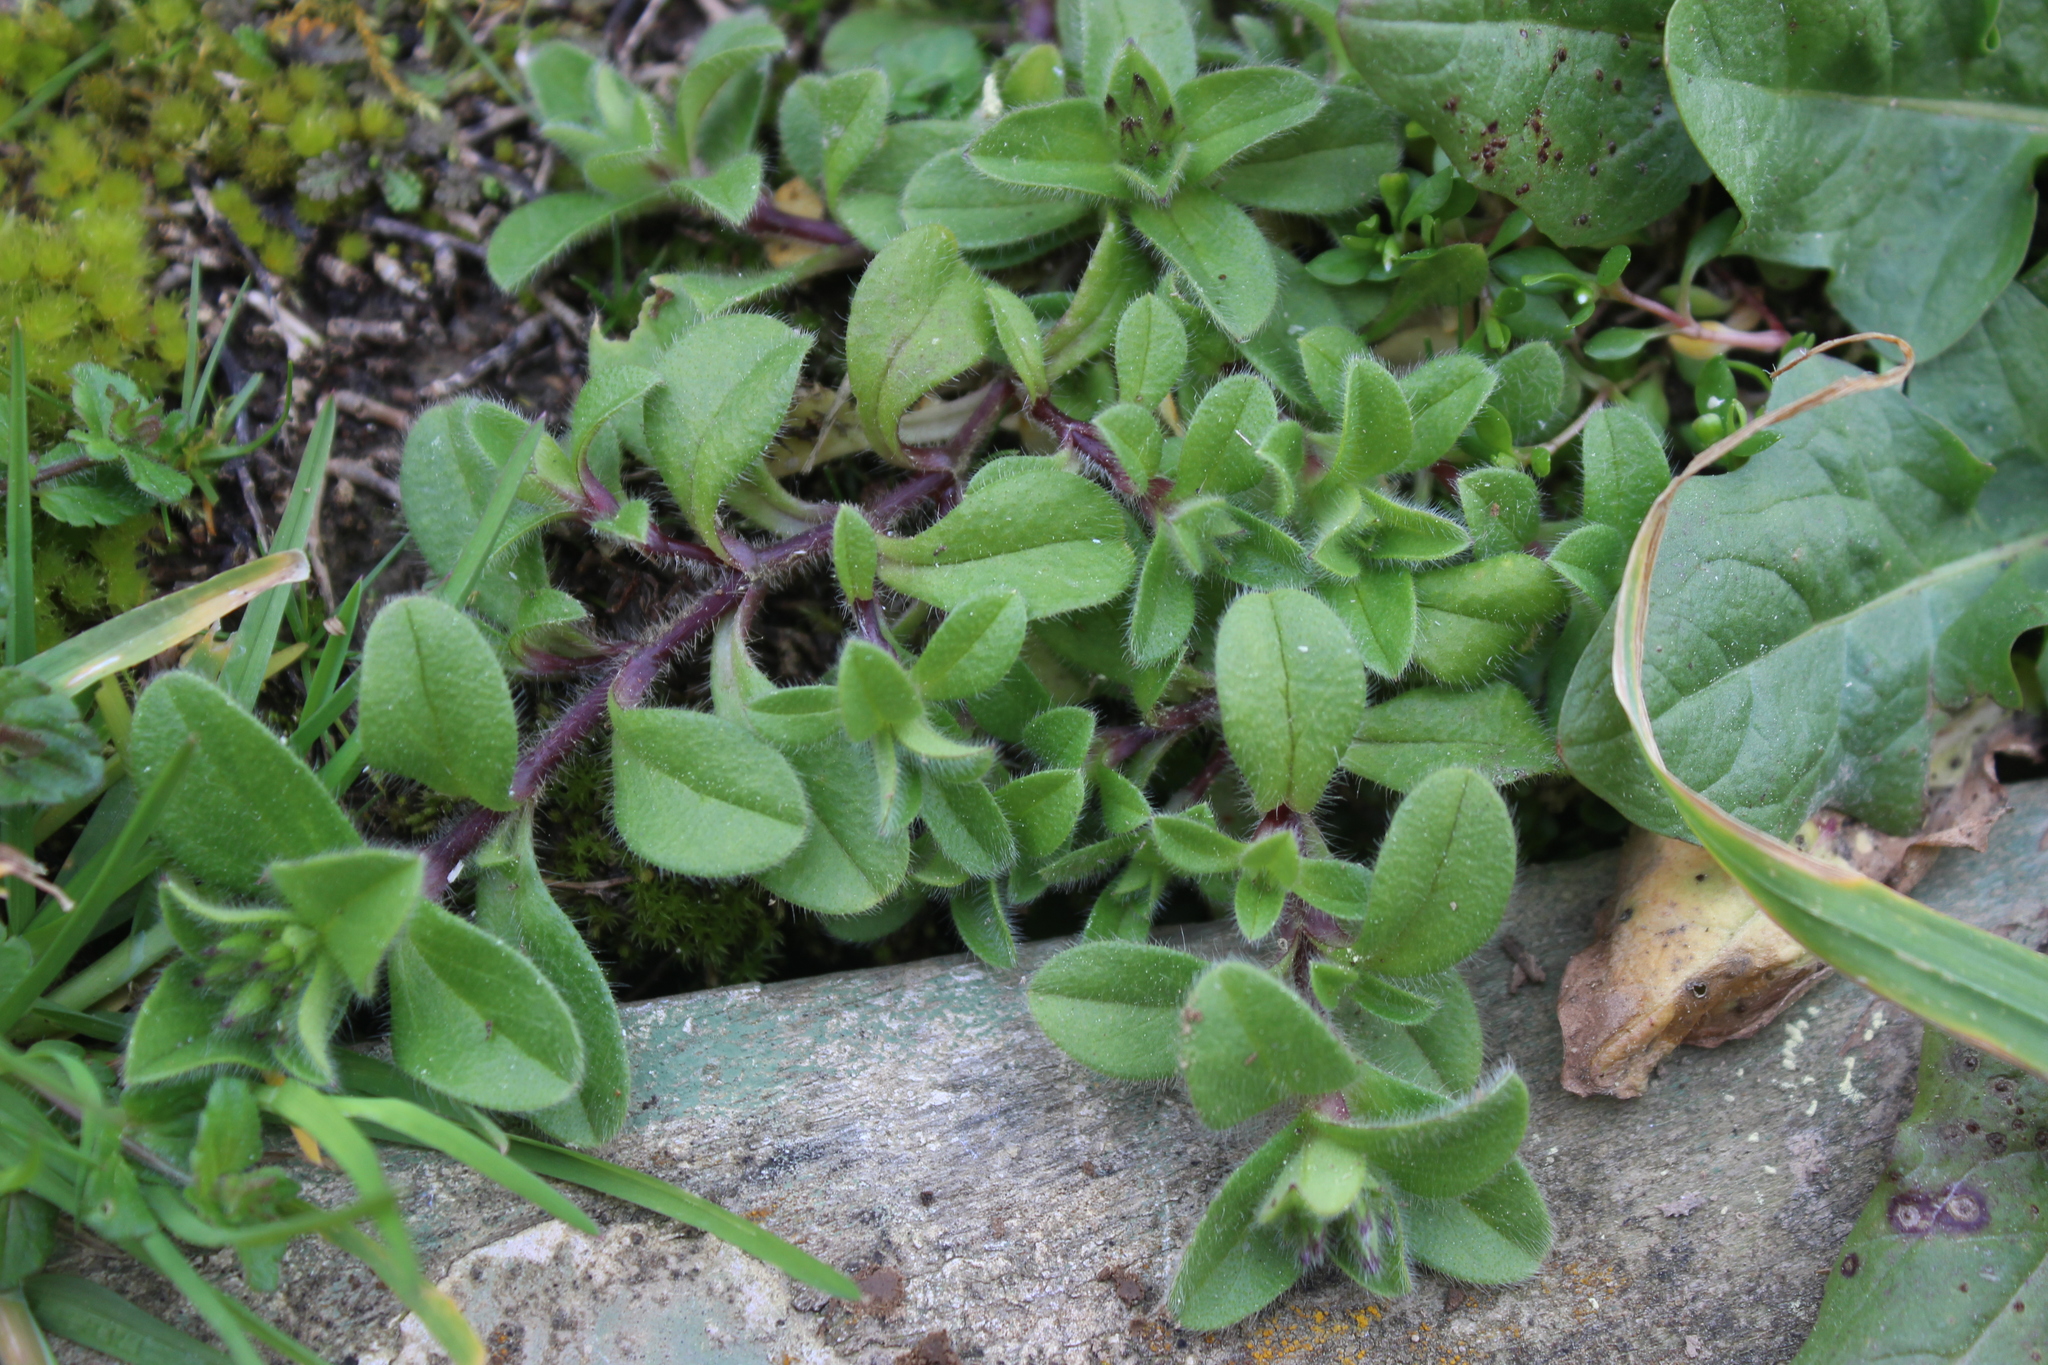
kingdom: Plantae
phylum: Tracheophyta
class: Magnoliopsida
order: Caryophyllales
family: Caryophyllaceae
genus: Cerastium
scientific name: Cerastium fontanum
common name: Common mouse-ear
